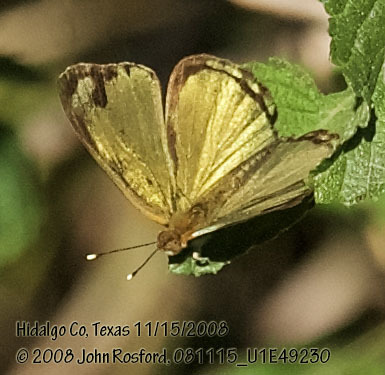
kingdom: Animalia
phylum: Arthropoda
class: Insecta
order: Lepidoptera
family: Nymphalidae
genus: Dynamine
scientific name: Dynamine dyonis
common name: Blue-eyed sailor
